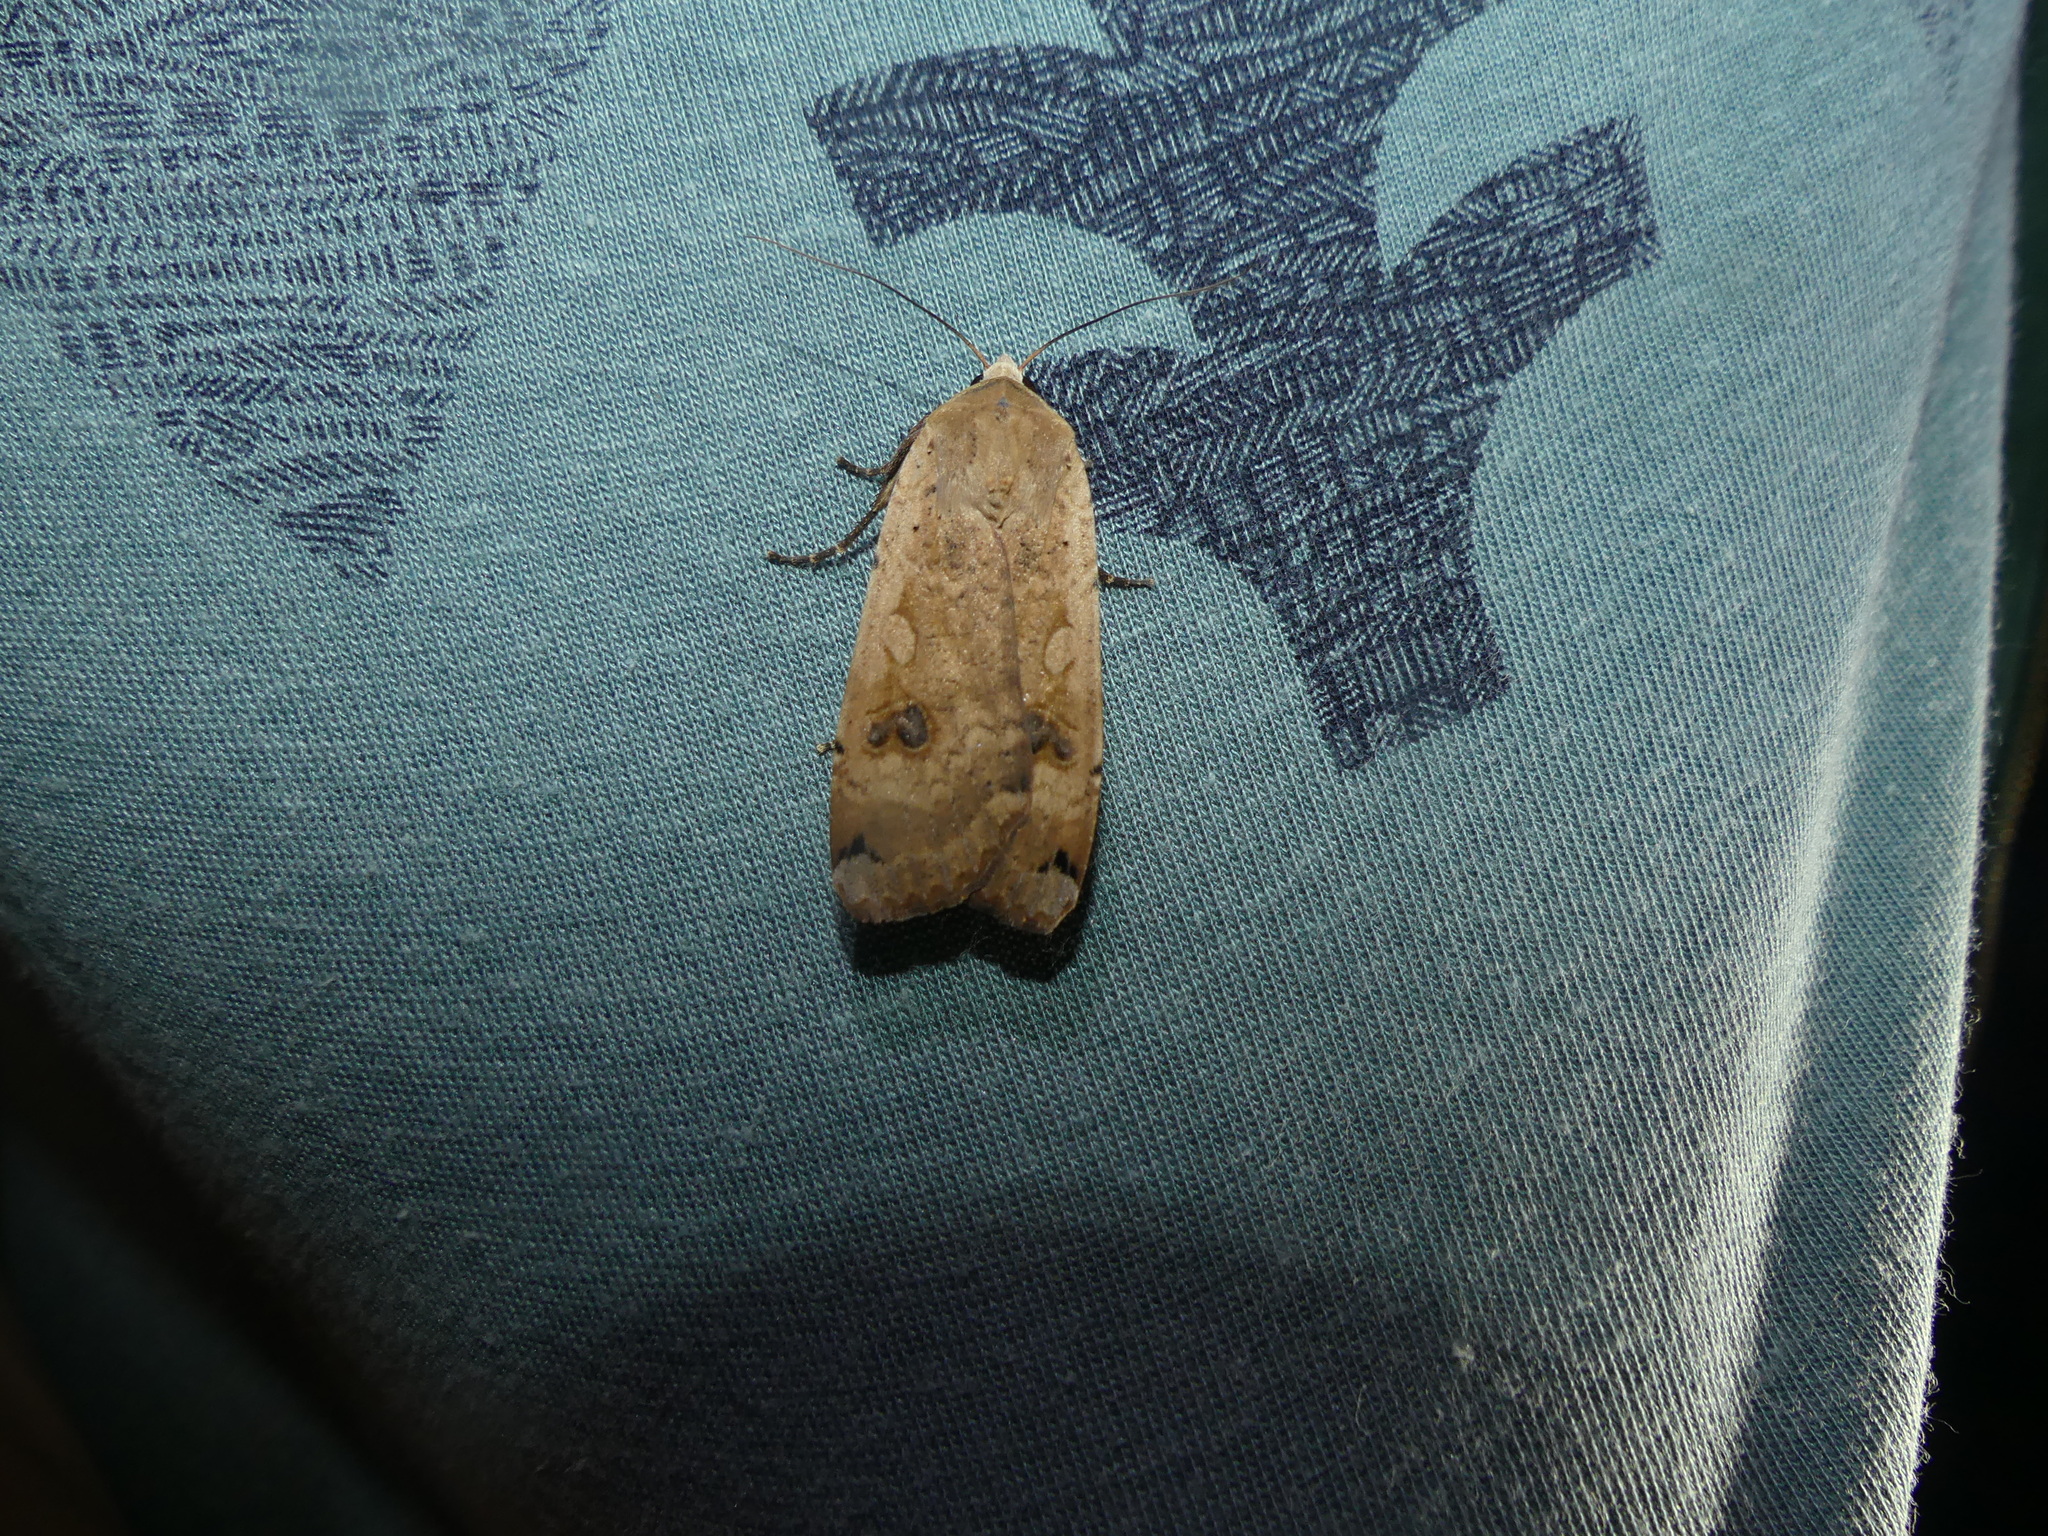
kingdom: Animalia
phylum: Arthropoda
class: Insecta
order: Lepidoptera
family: Noctuidae
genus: Noctua
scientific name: Noctua pronuba
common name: Large yellow underwing
